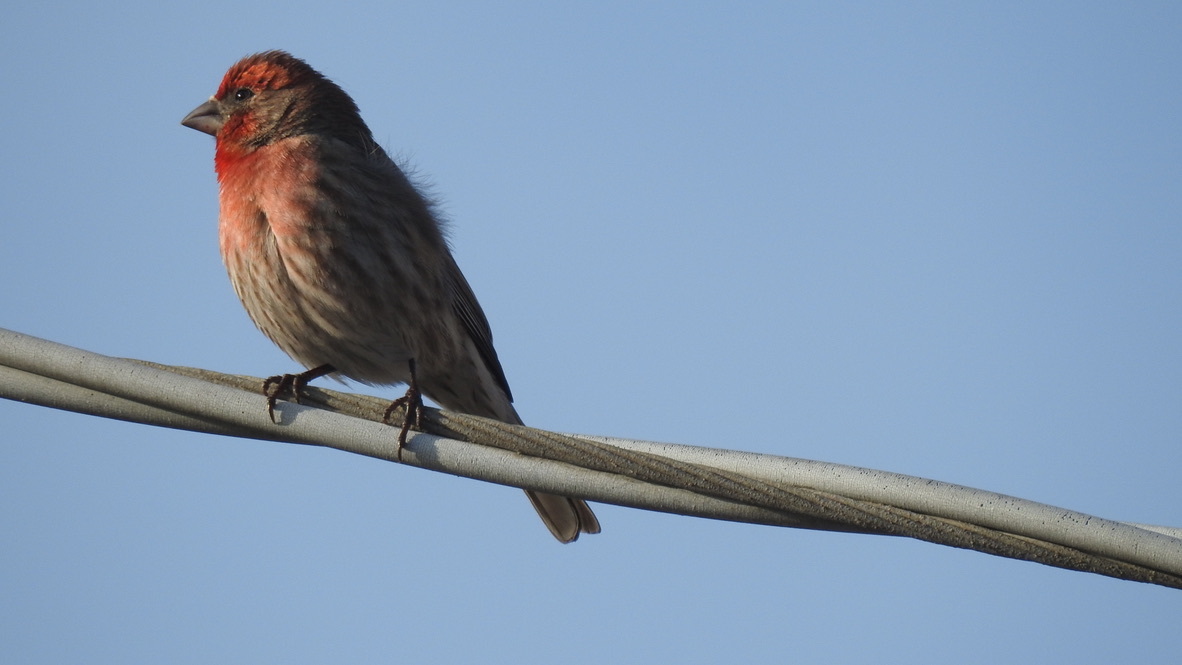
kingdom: Animalia
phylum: Chordata
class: Aves
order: Passeriformes
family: Fringillidae
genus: Haemorhous
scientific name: Haemorhous mexicanus
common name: House finch
